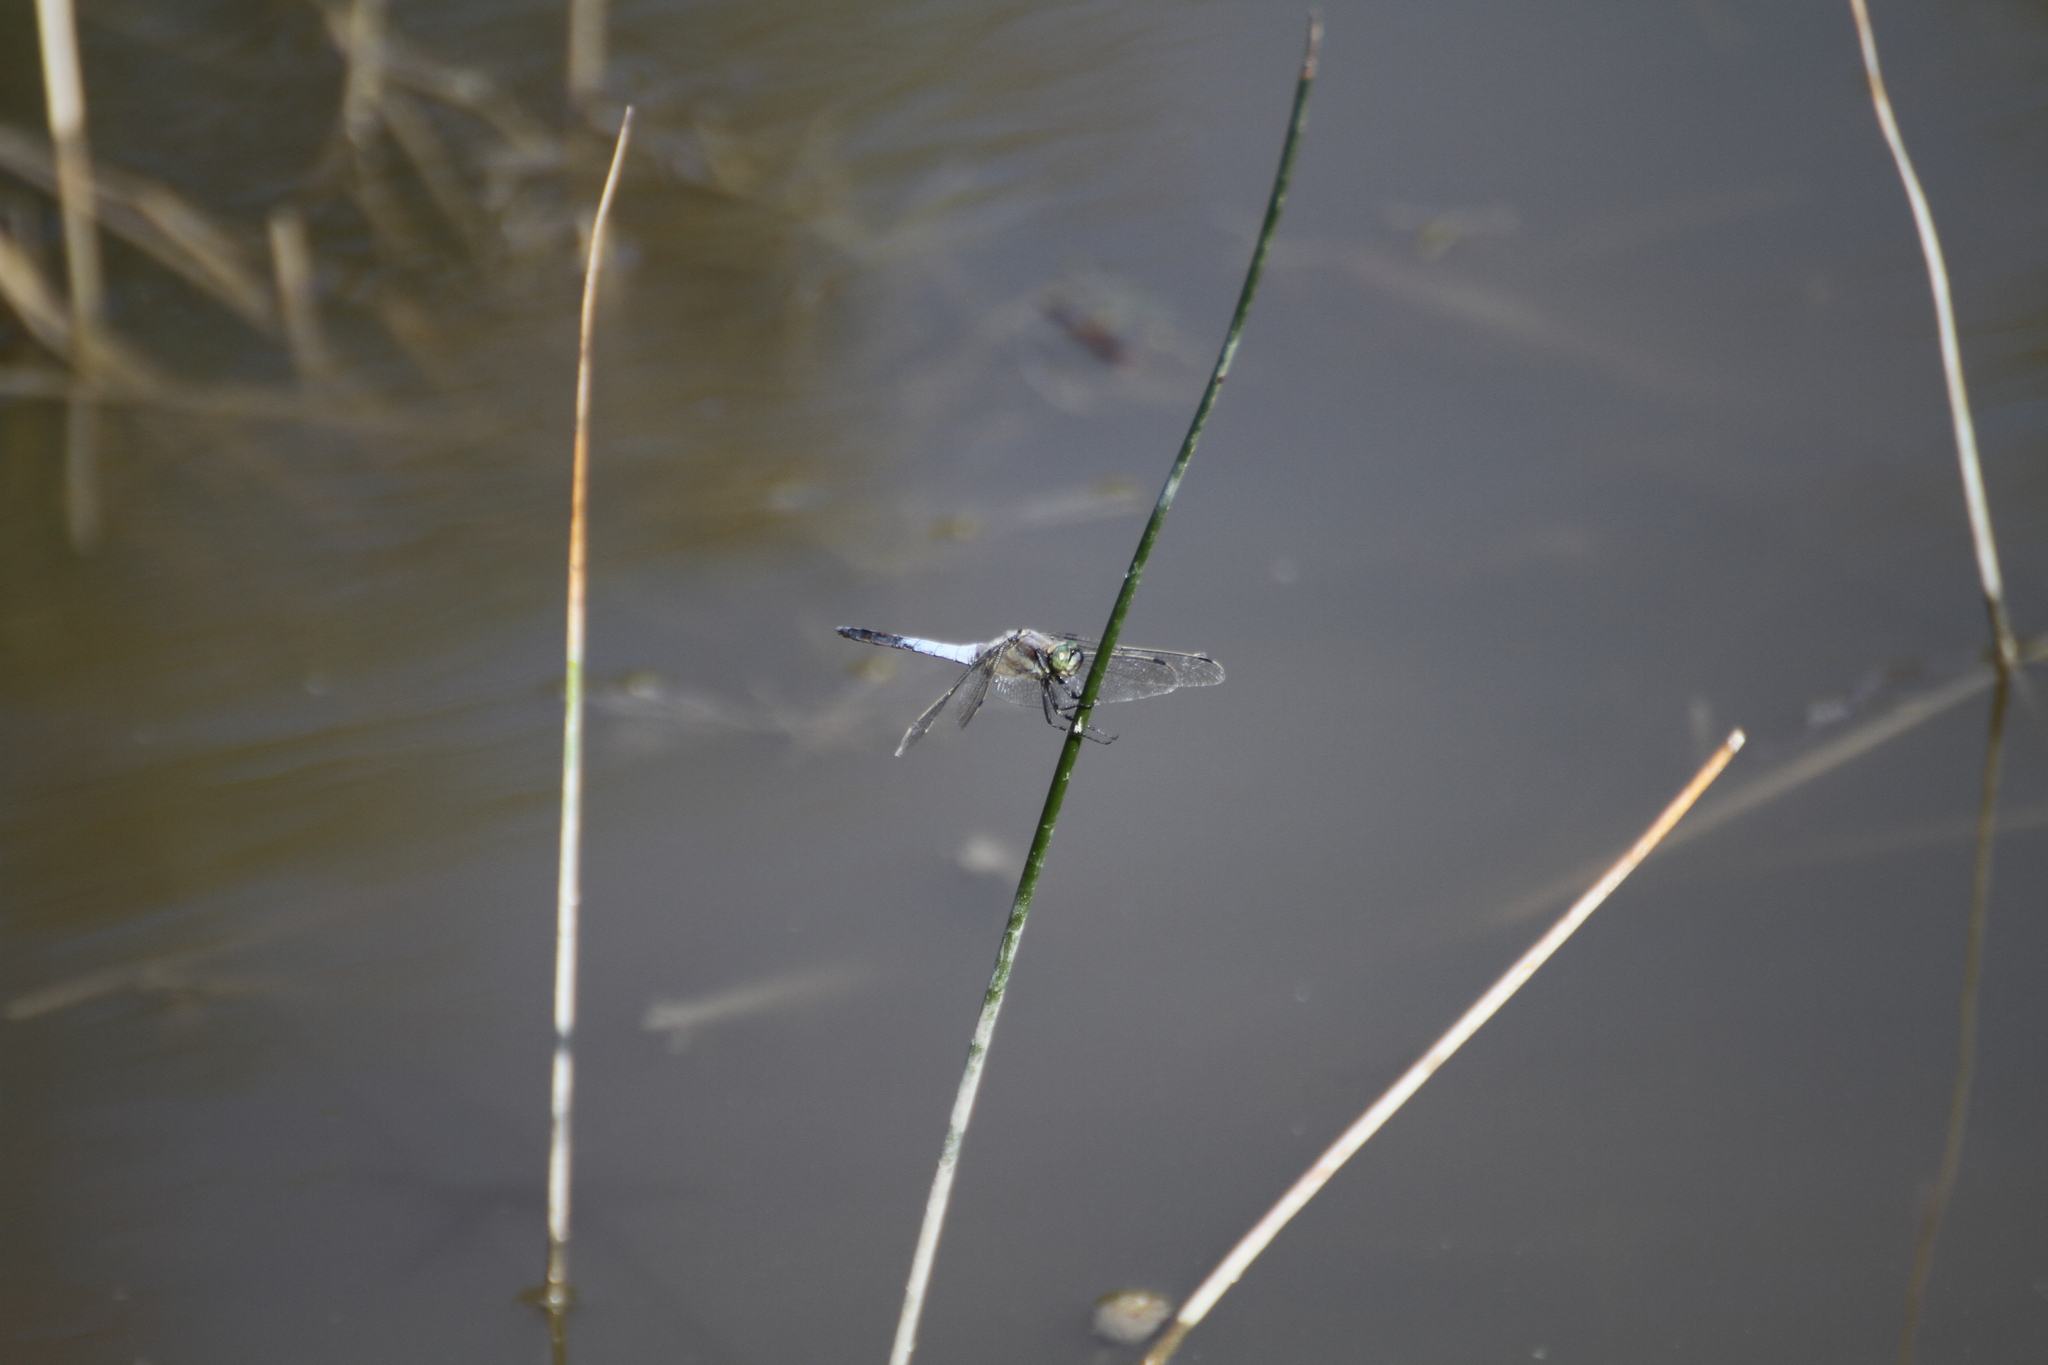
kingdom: Animalia
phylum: Arthropoda
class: Insecta
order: Odonata
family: Libellulidae
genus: Orthetrum
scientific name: Orthetrum cancellatum
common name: Black-tailed skimmer
